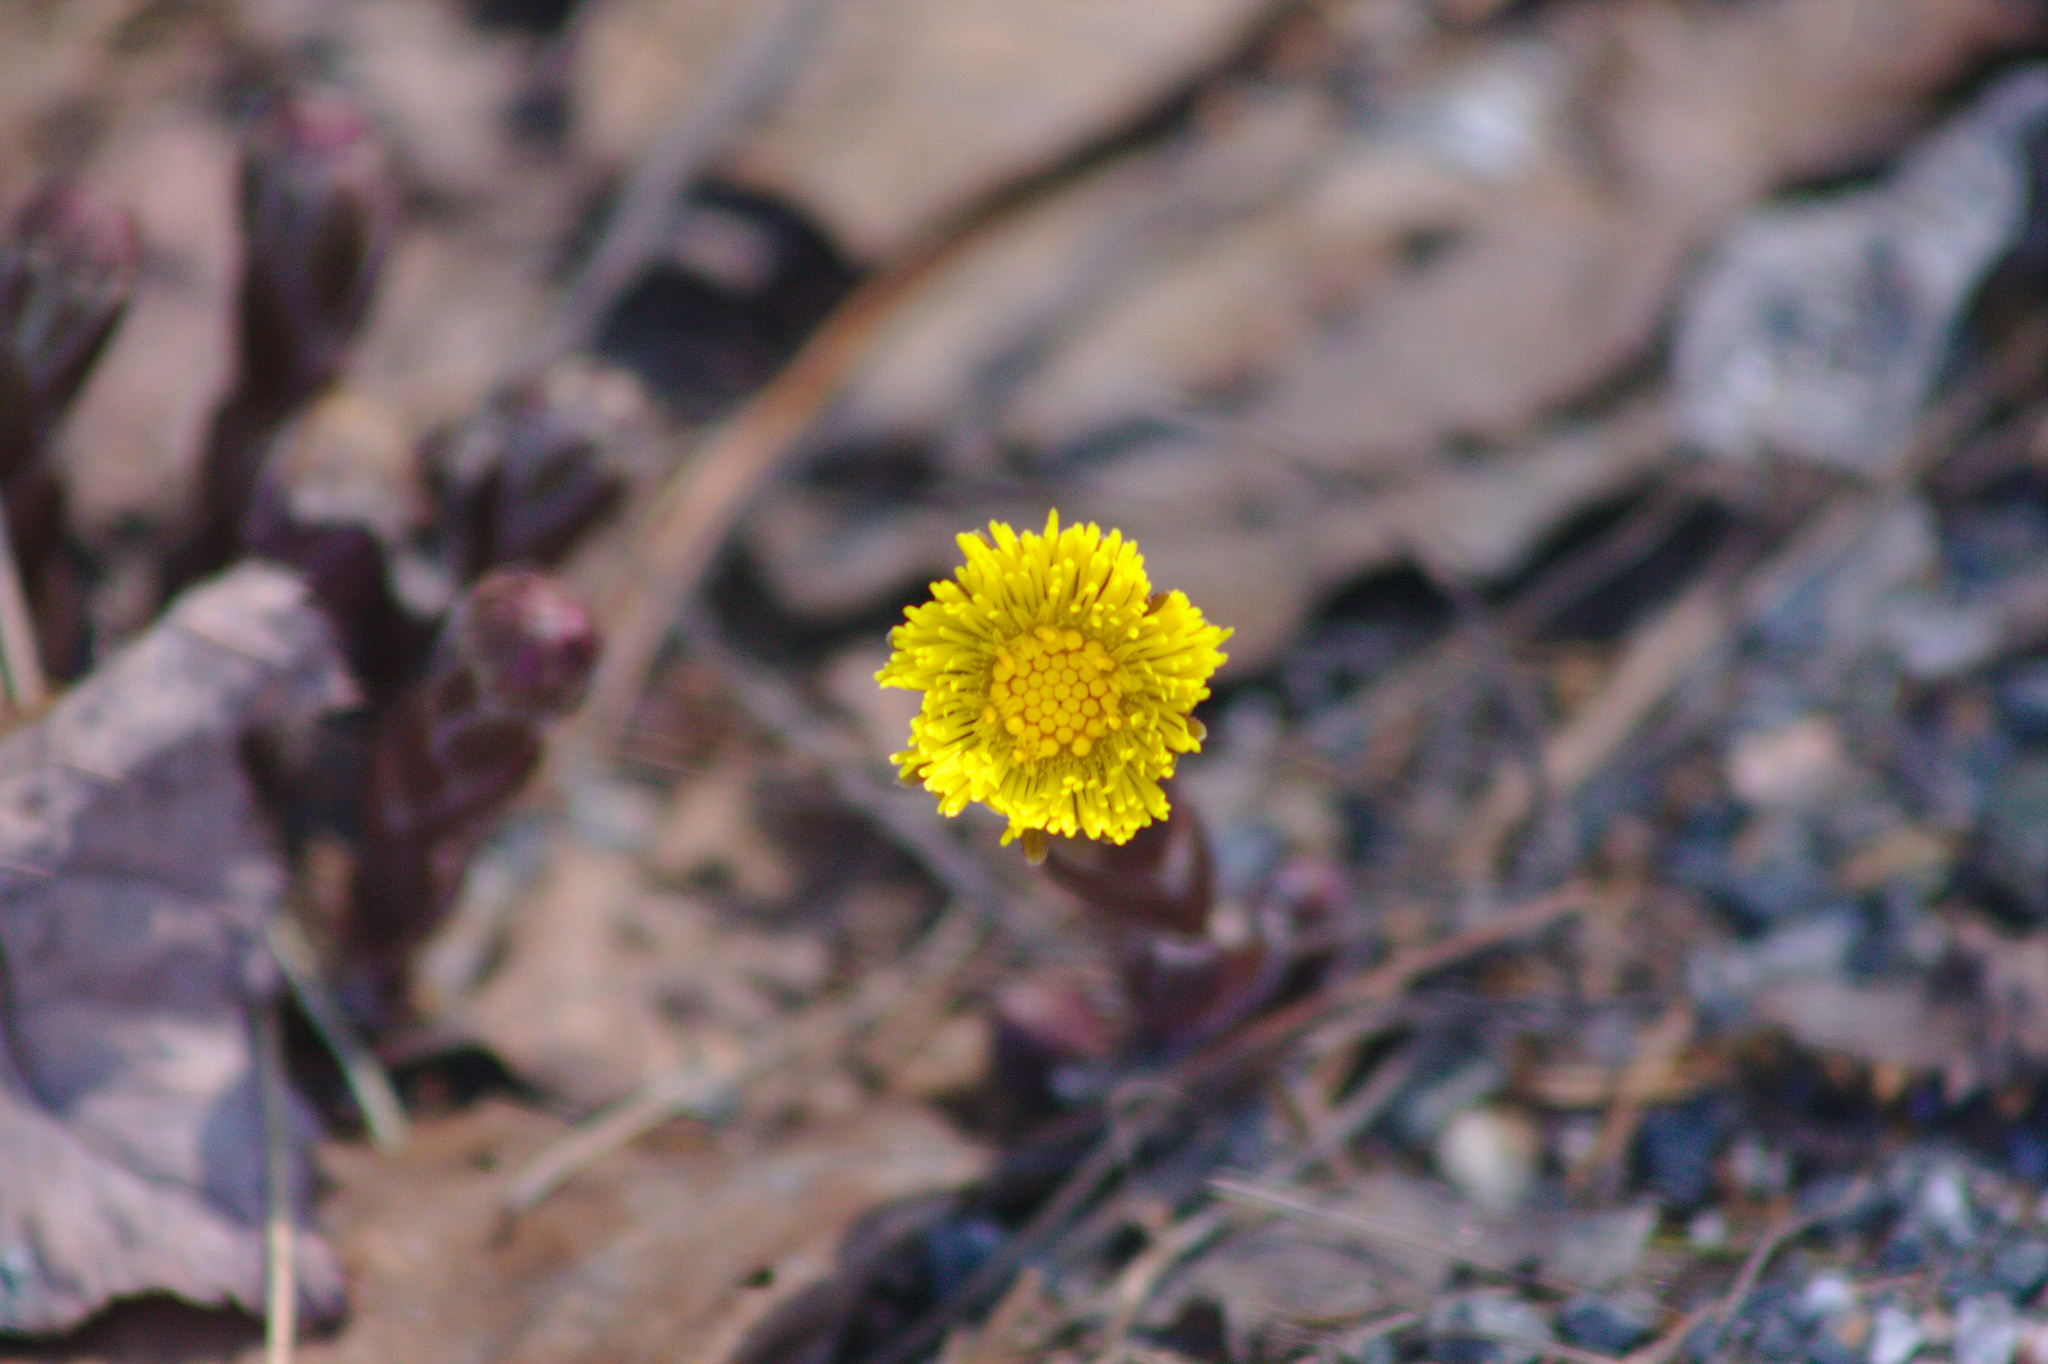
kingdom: Plantae
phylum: Tracheophyta
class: Magnoliopsida
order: Asterales
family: Asteraceae
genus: Tussilago
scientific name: Tussilago farfara
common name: Coltsfoot
